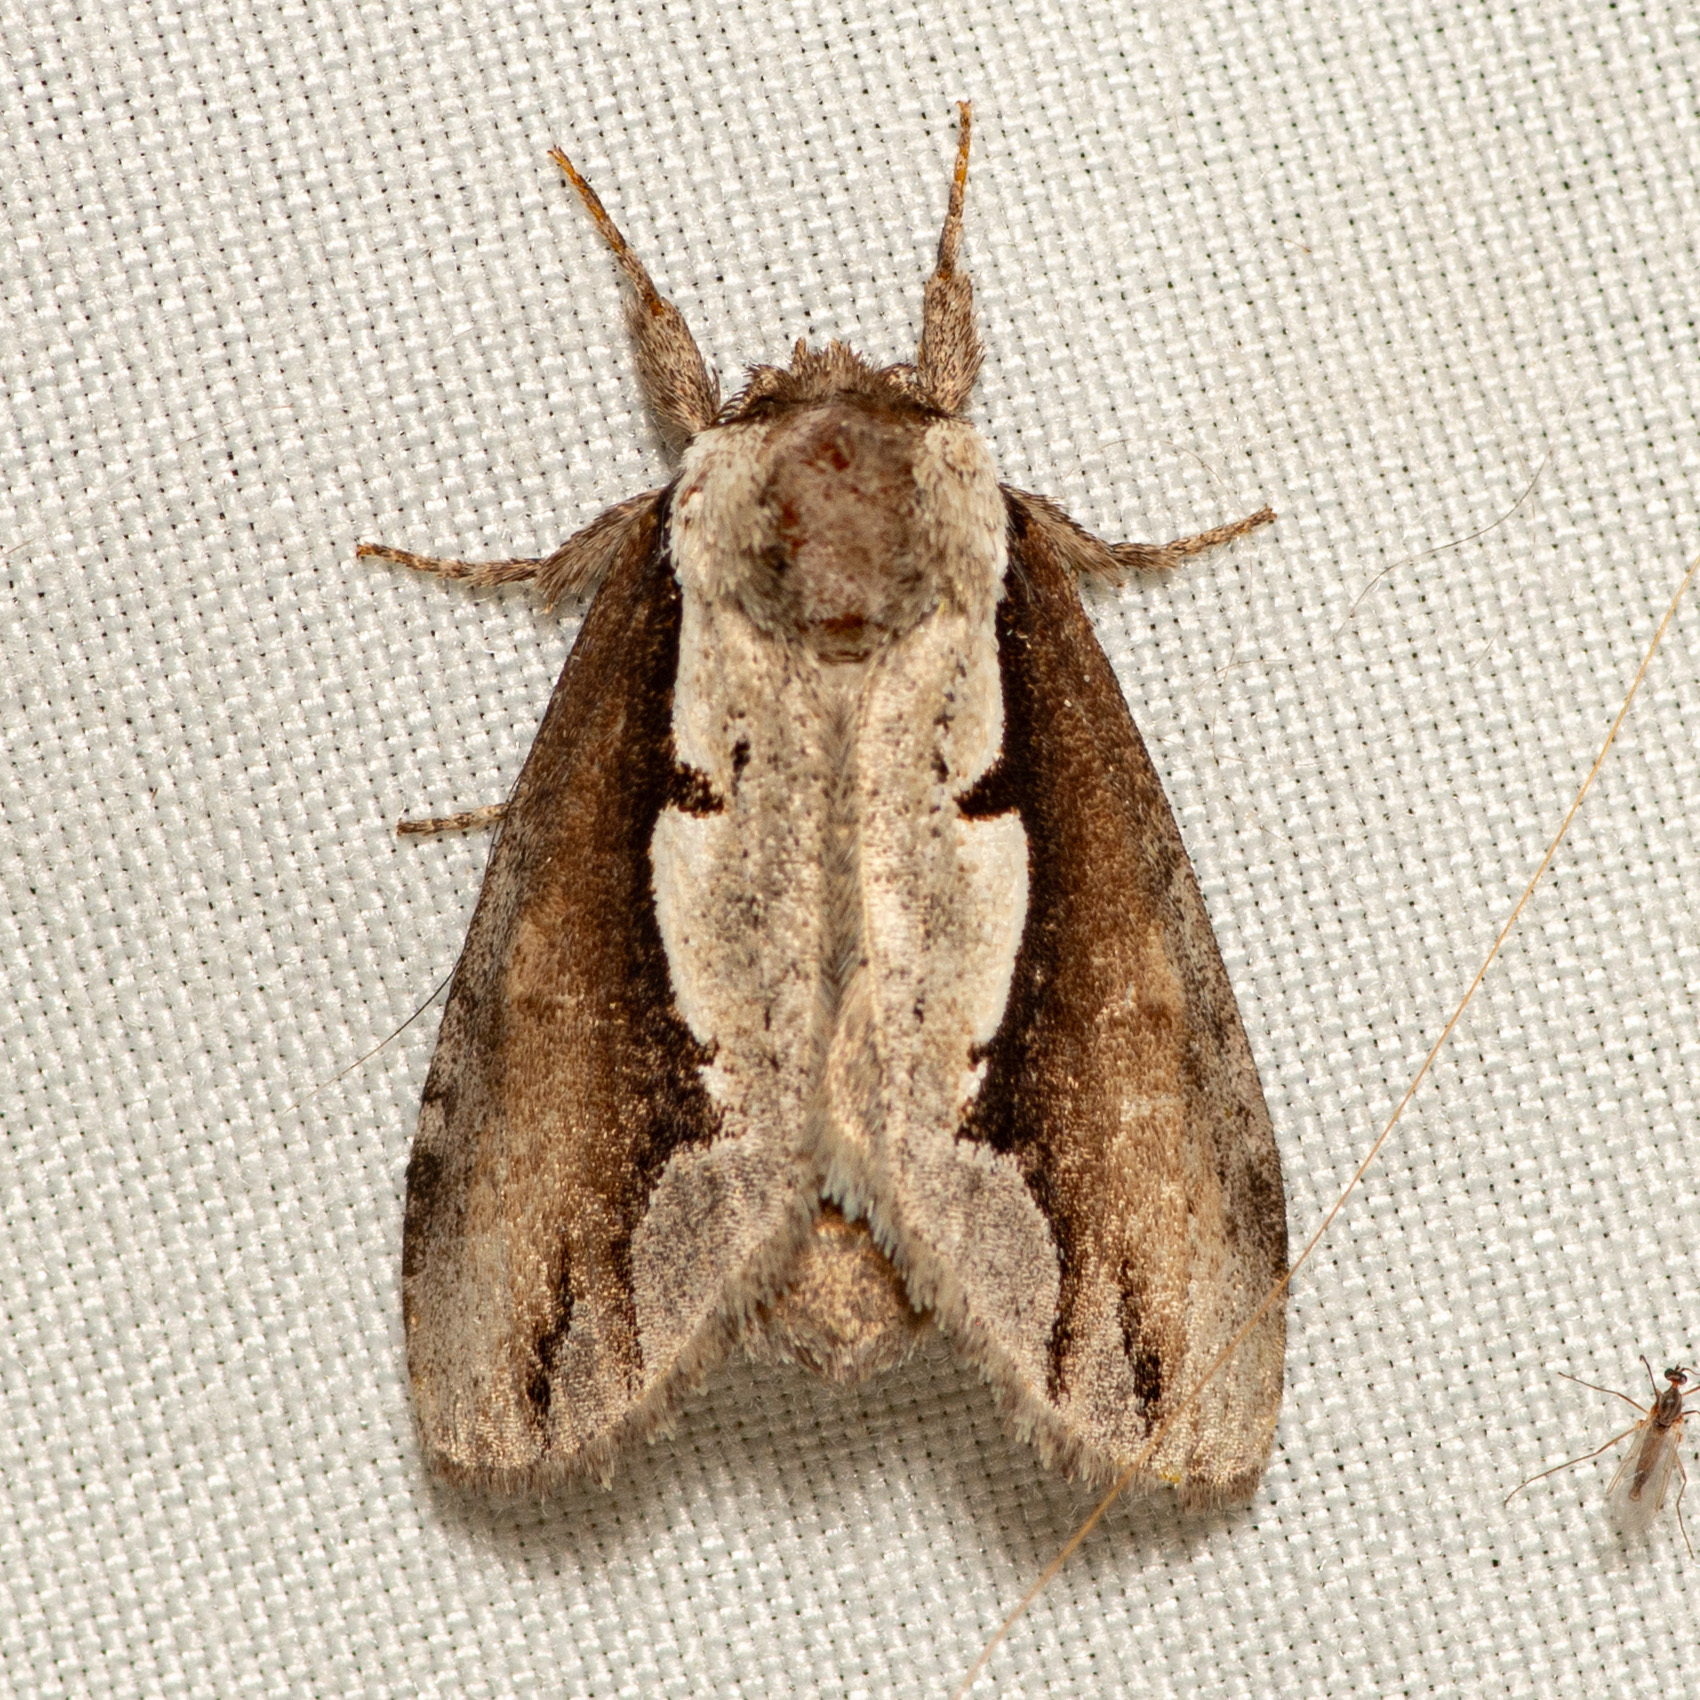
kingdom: Animalia
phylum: Arthropoda
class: Insecta
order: Lepidoptera
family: Notodontidae
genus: Nerice
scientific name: Nerice bidentata
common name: Double-toothed prominent
